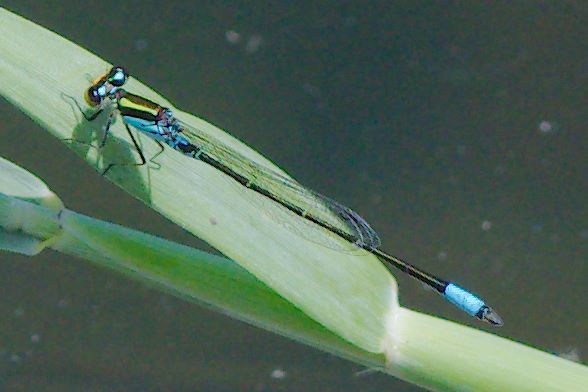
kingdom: Animalia
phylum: Arthropoda
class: Insecta
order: Odonata
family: Coenagrionidae
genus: Neoerythromma
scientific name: Neoerythromma cultellatum
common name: Caribbean yellowface
